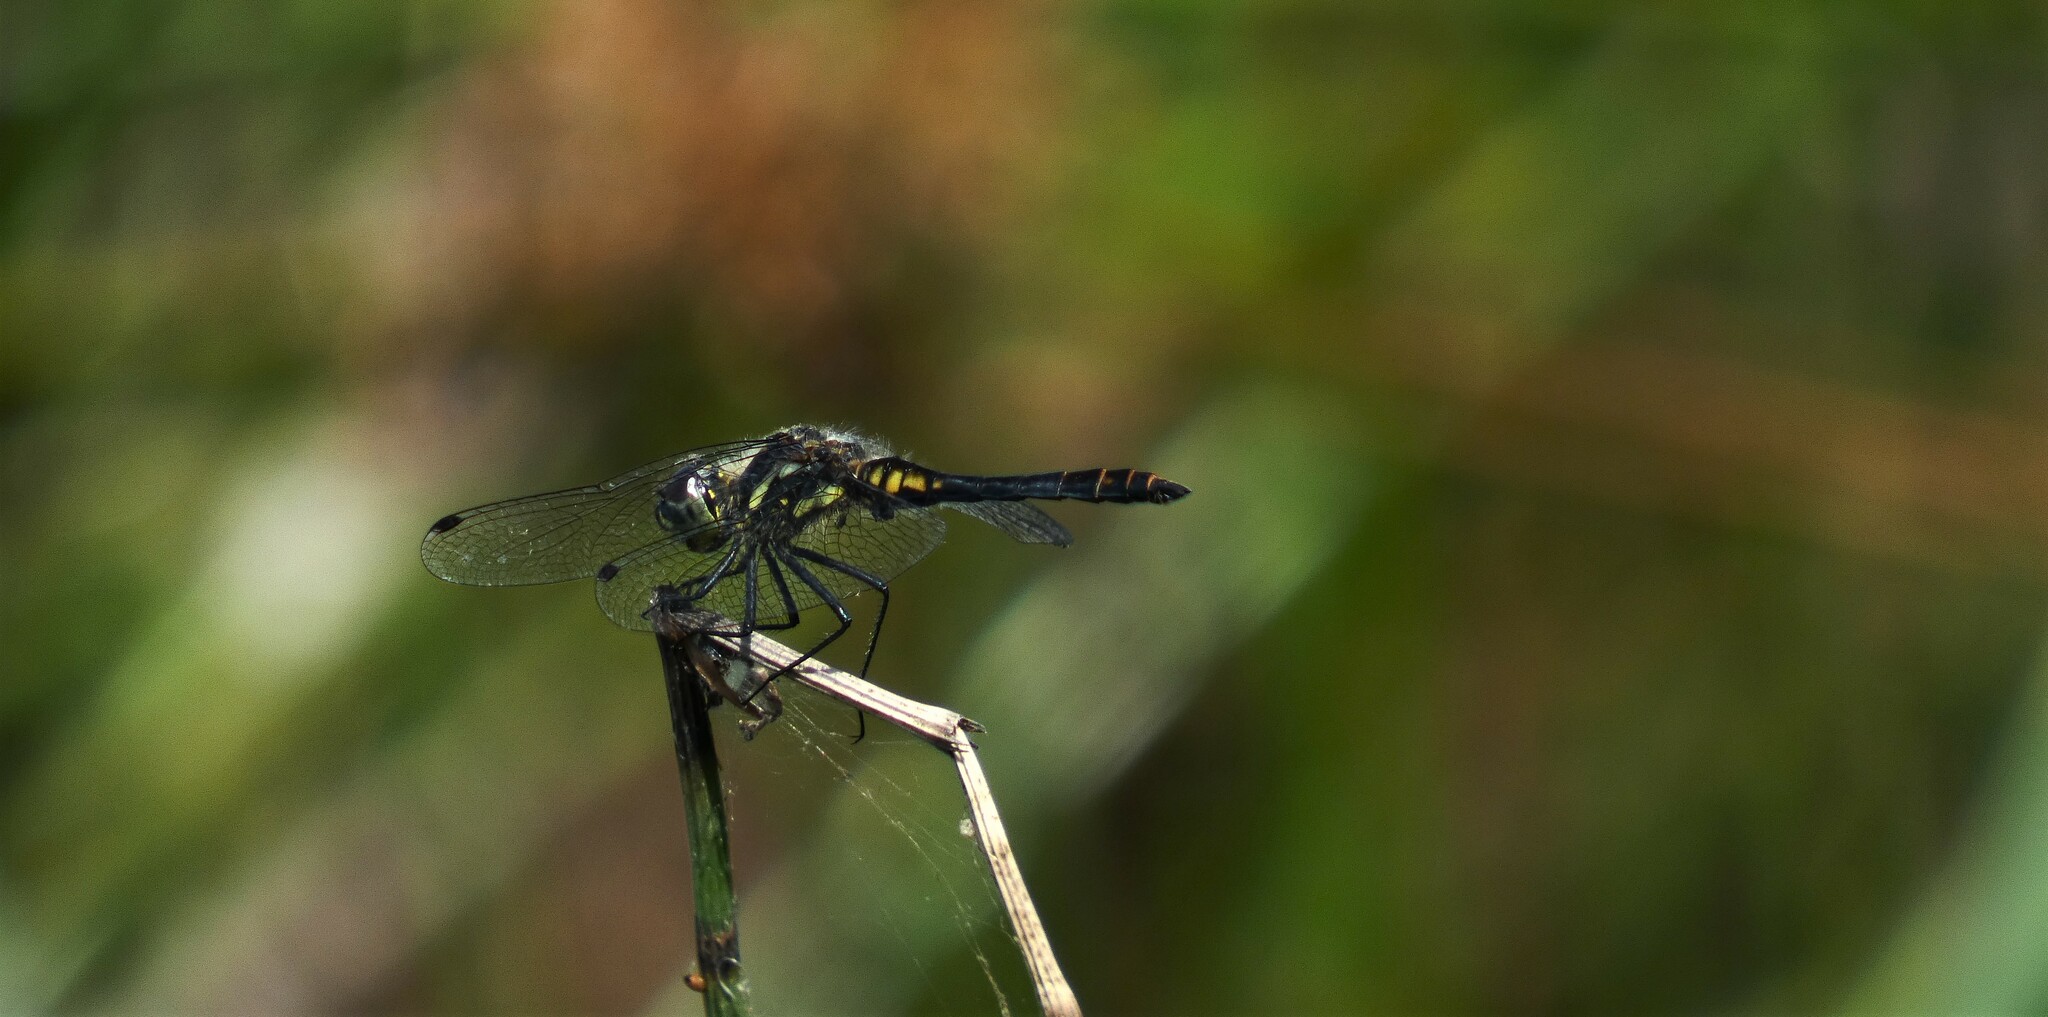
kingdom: Animalia
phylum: Arthropoda
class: Insecta
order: Odonata
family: Libellulidae
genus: Sympetrum
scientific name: Sympetrum danae
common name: Black darter
